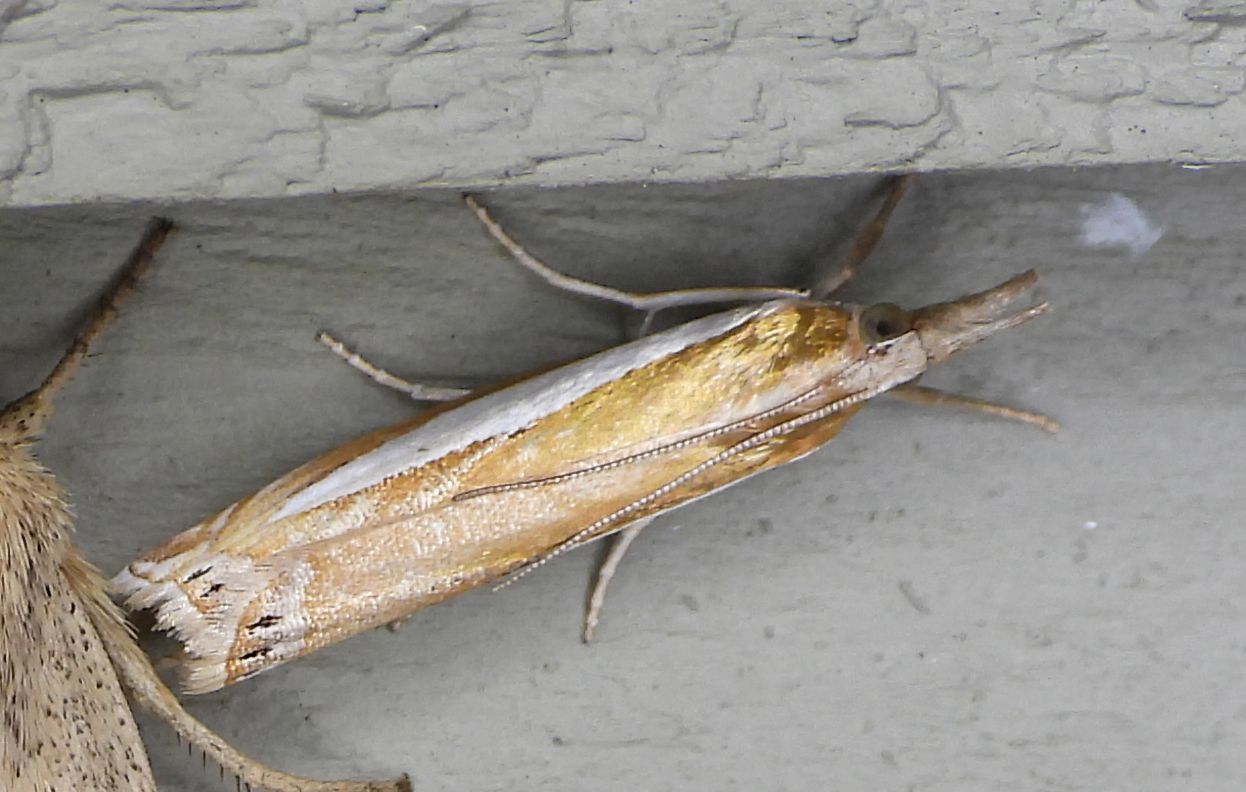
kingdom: Animalia
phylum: Arthropoda
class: Insecta
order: Lepidoptera
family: Crambidae
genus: Crambus
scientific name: Crambus praefectellus
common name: Common grass-veneer
